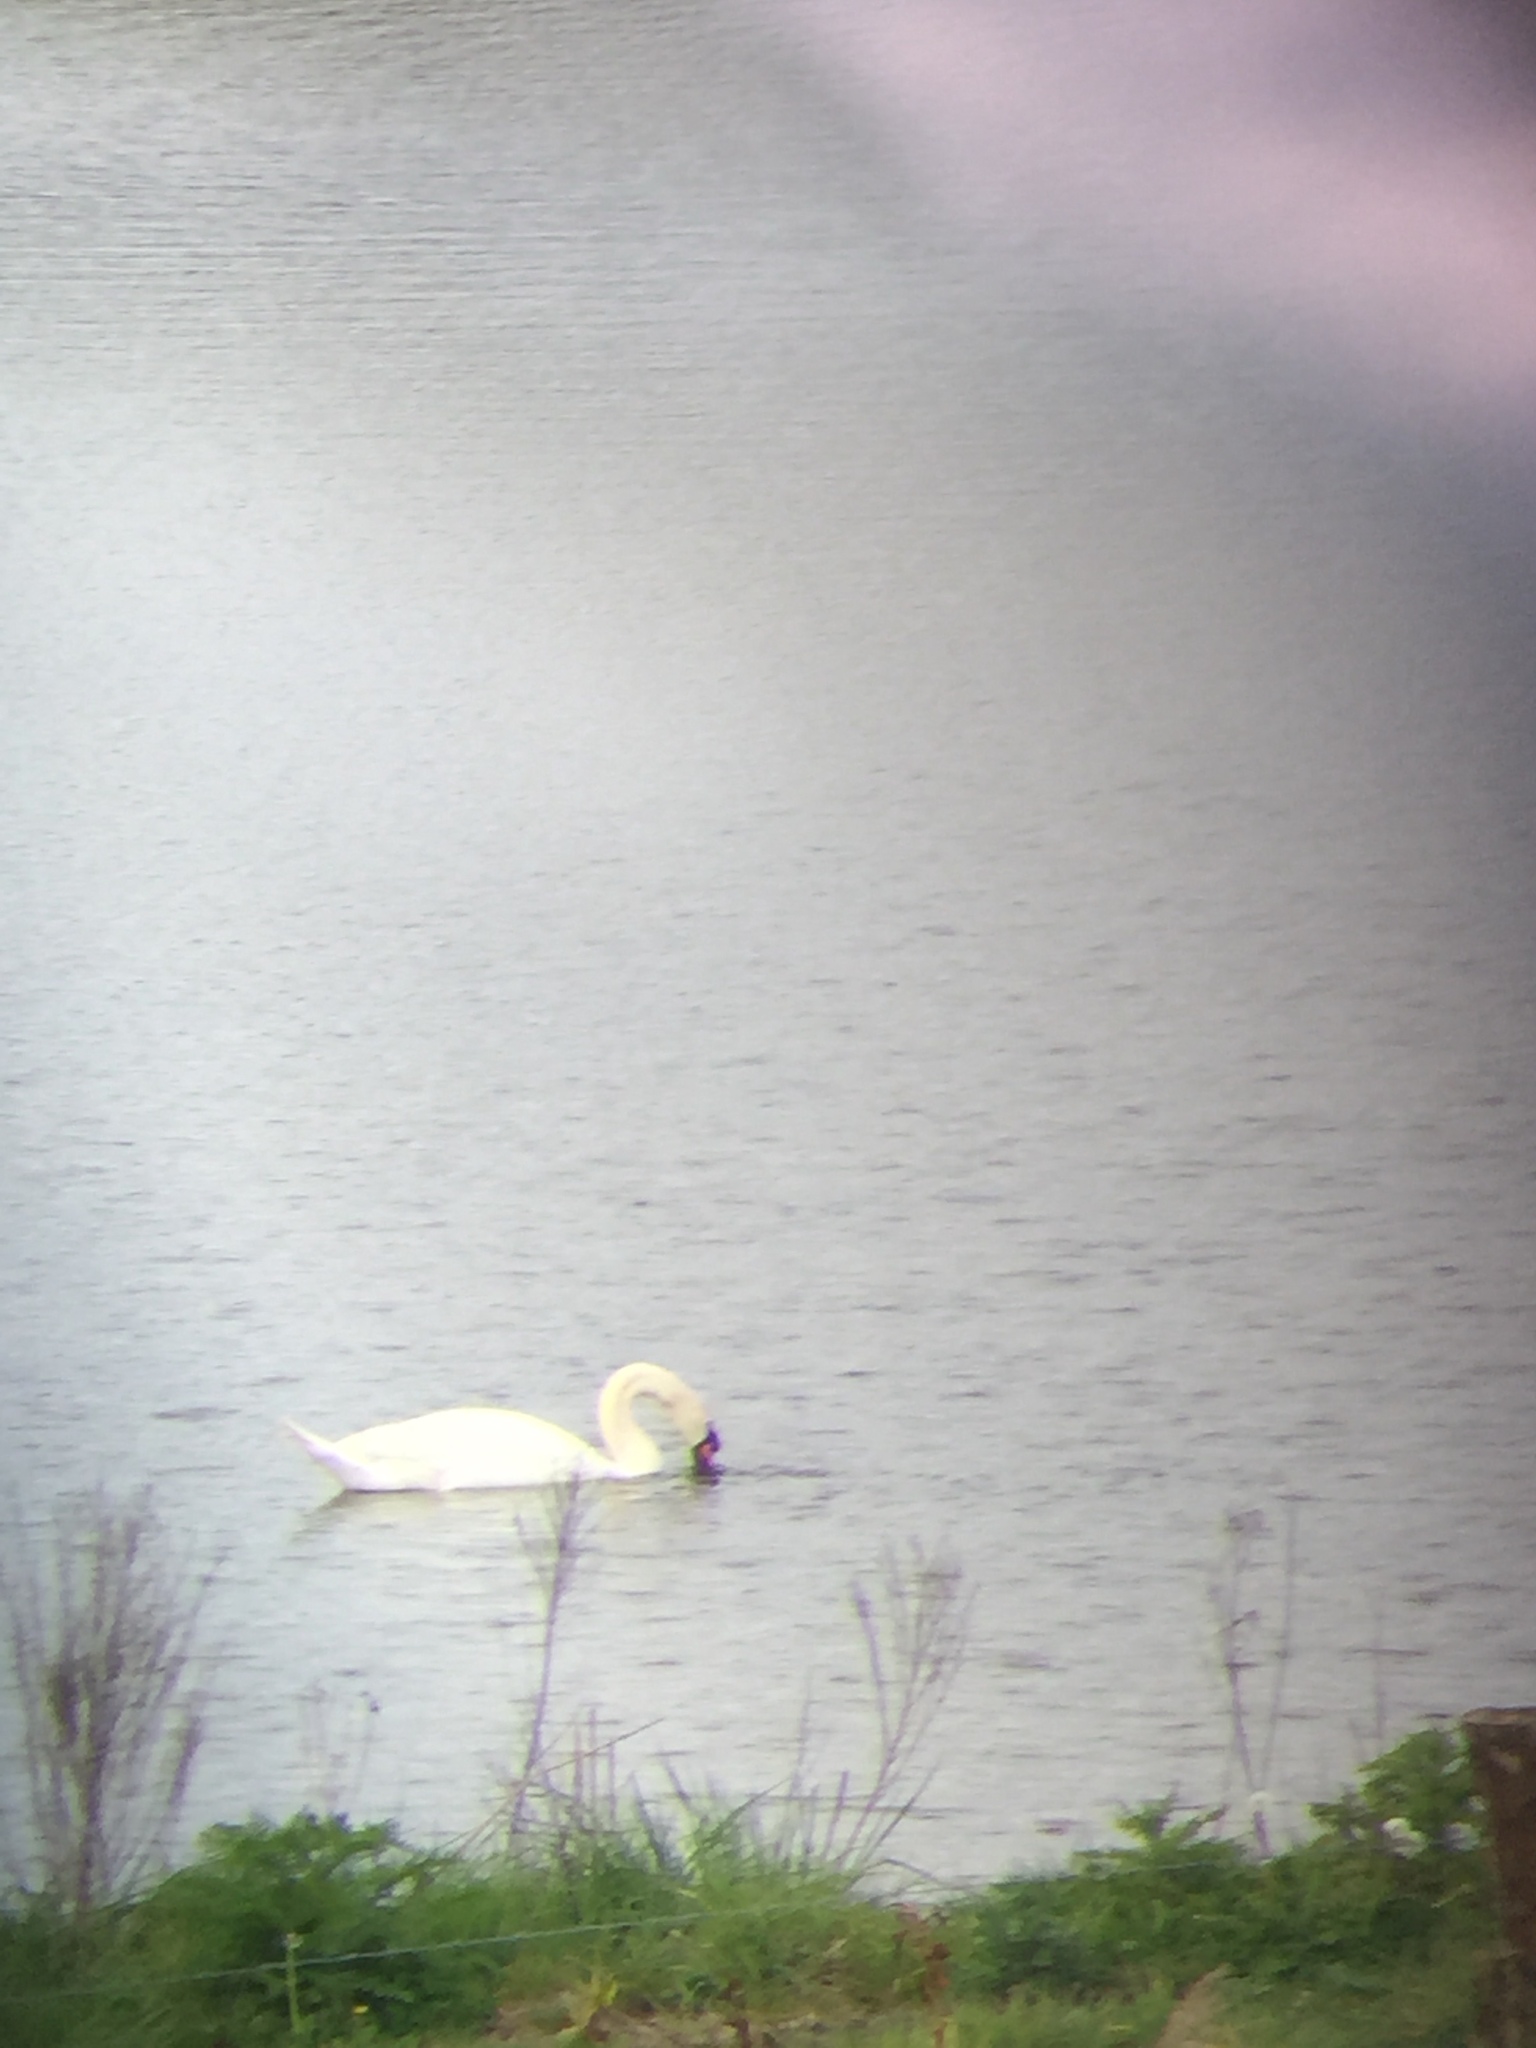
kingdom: Animalia
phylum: Chordata
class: Aves
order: Anseriformes
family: Anatidae
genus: Cygnus
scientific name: Cygnus olor
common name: Mute swan
